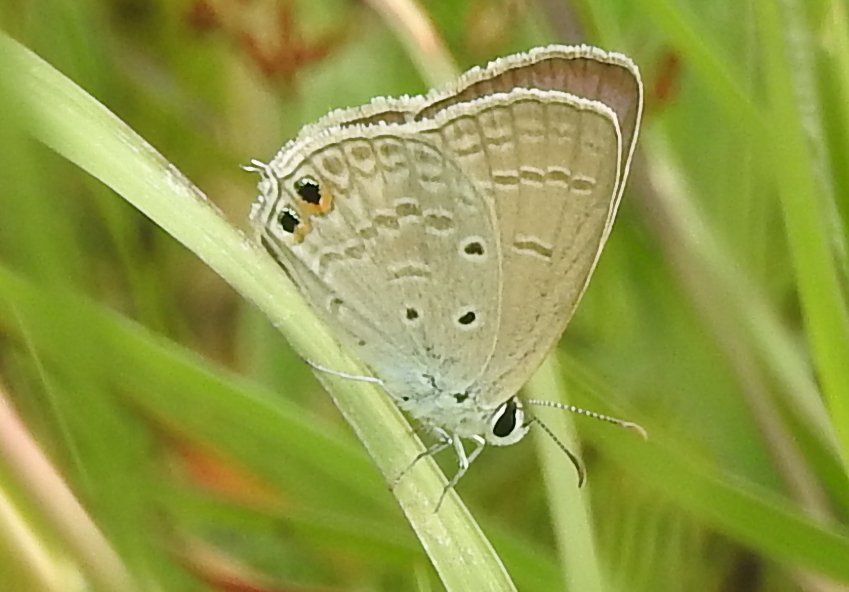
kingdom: Animalia
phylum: Arthropoda
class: Insecta
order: Lepidoptera
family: Lycaenidae
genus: Euchrysops
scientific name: Euchrysops cnejus
